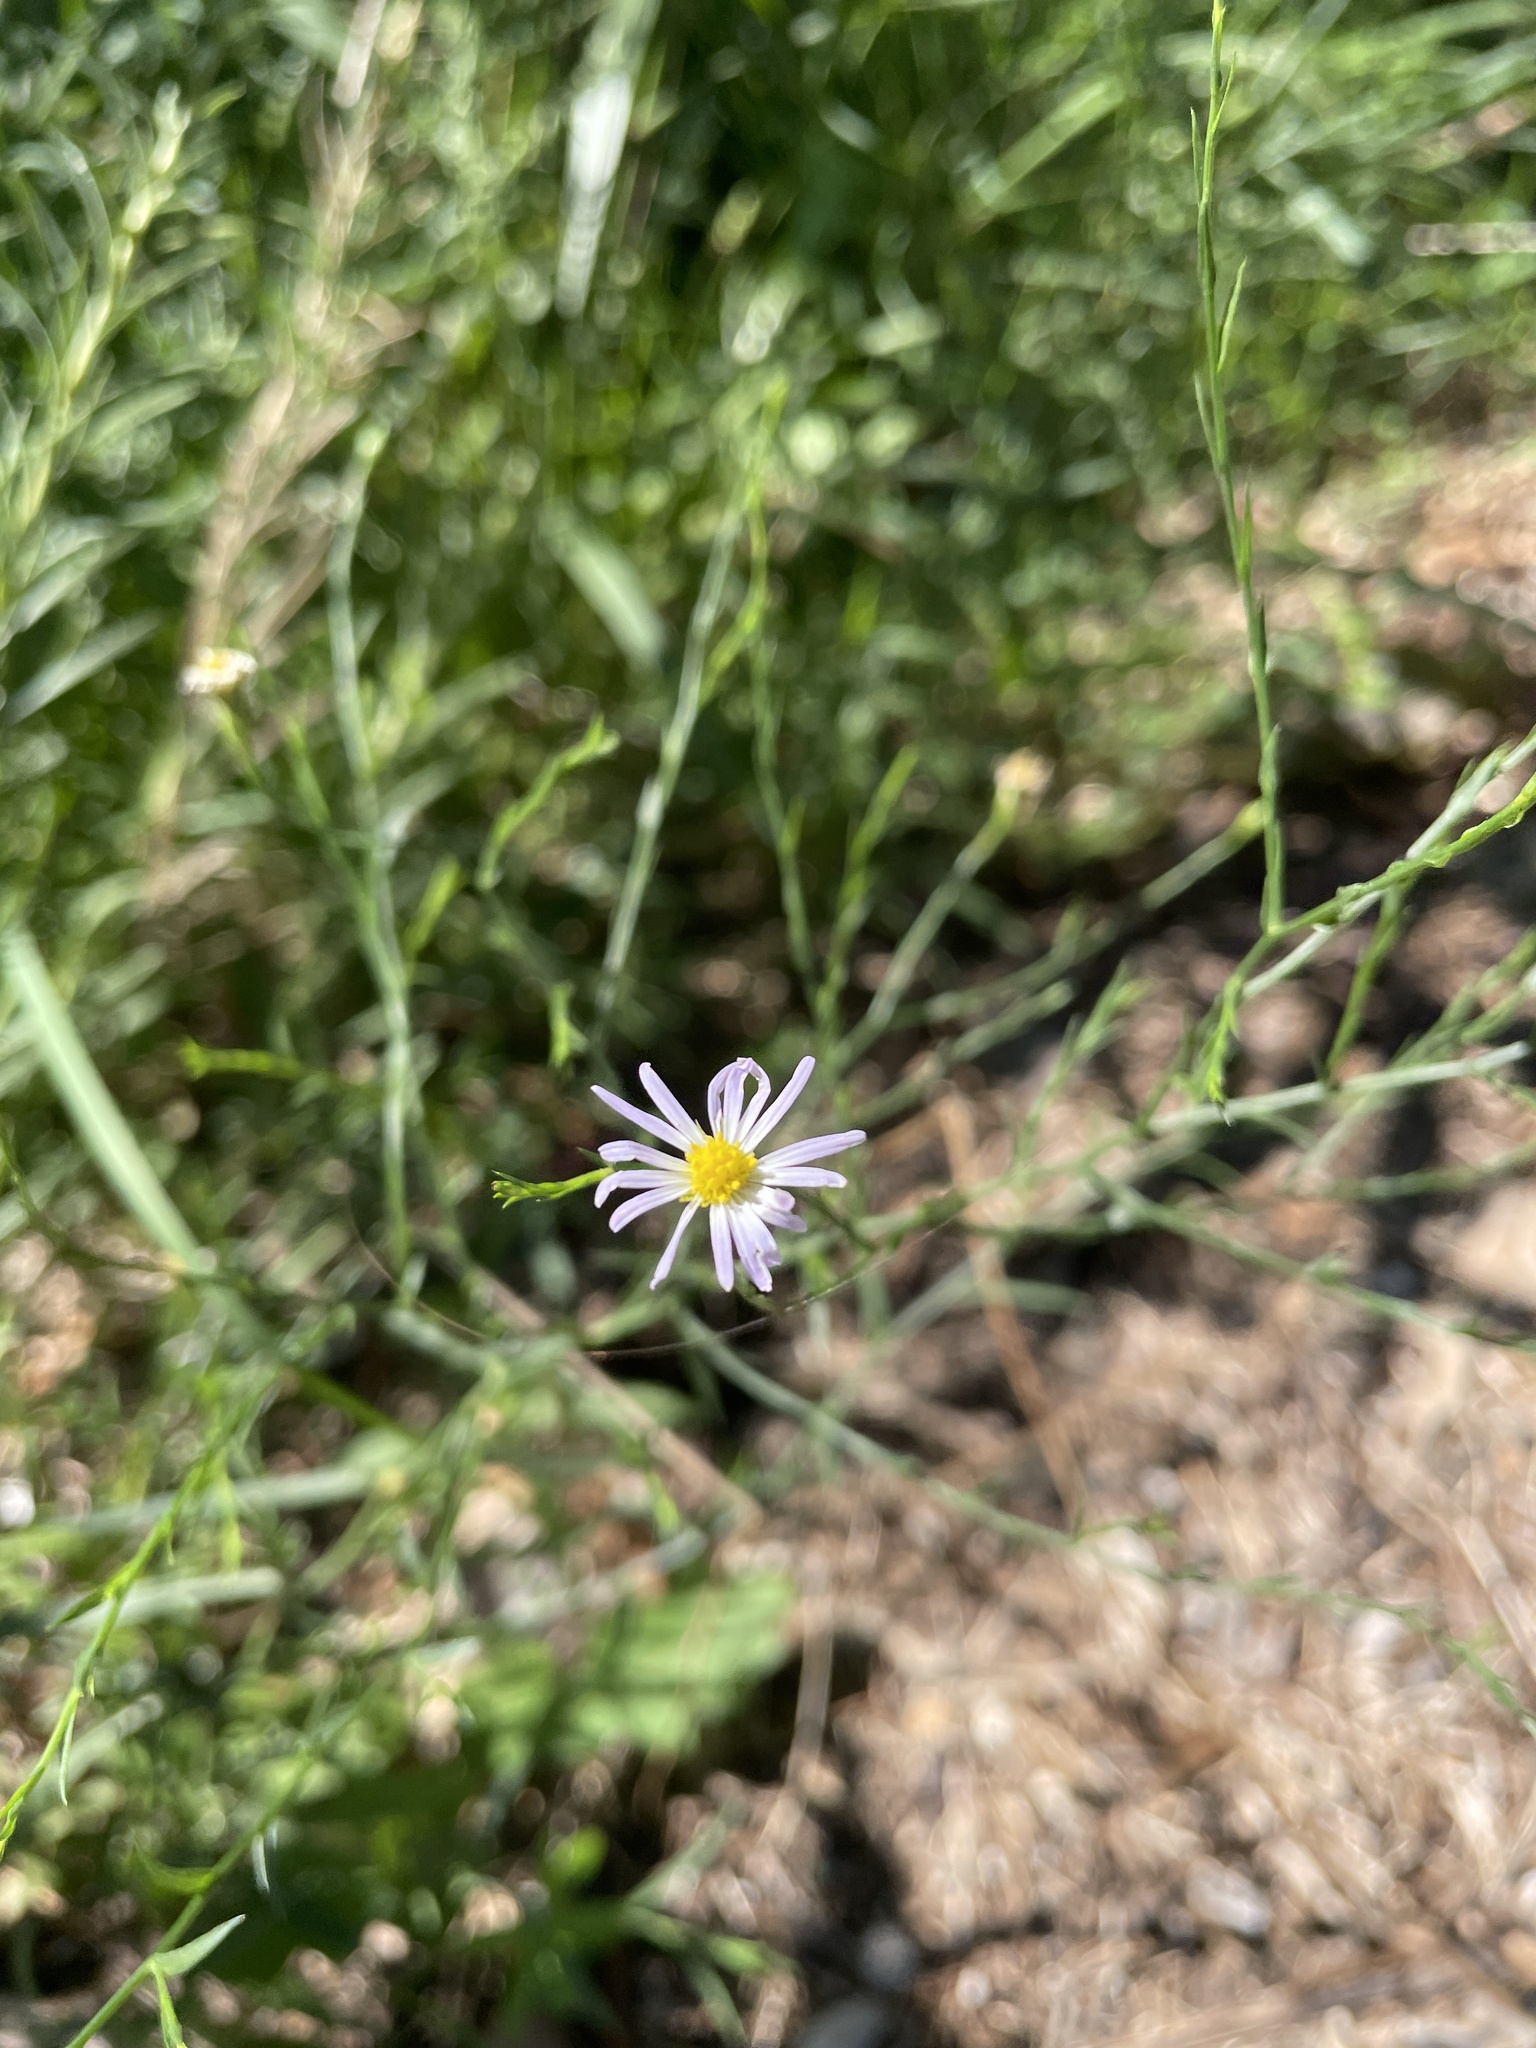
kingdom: Plantae
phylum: Tracheophyta
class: Magnoliopsida
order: Asterales
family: Asteraceae
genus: Symphyotrichum
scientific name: Symphyotrichum divaricatum
